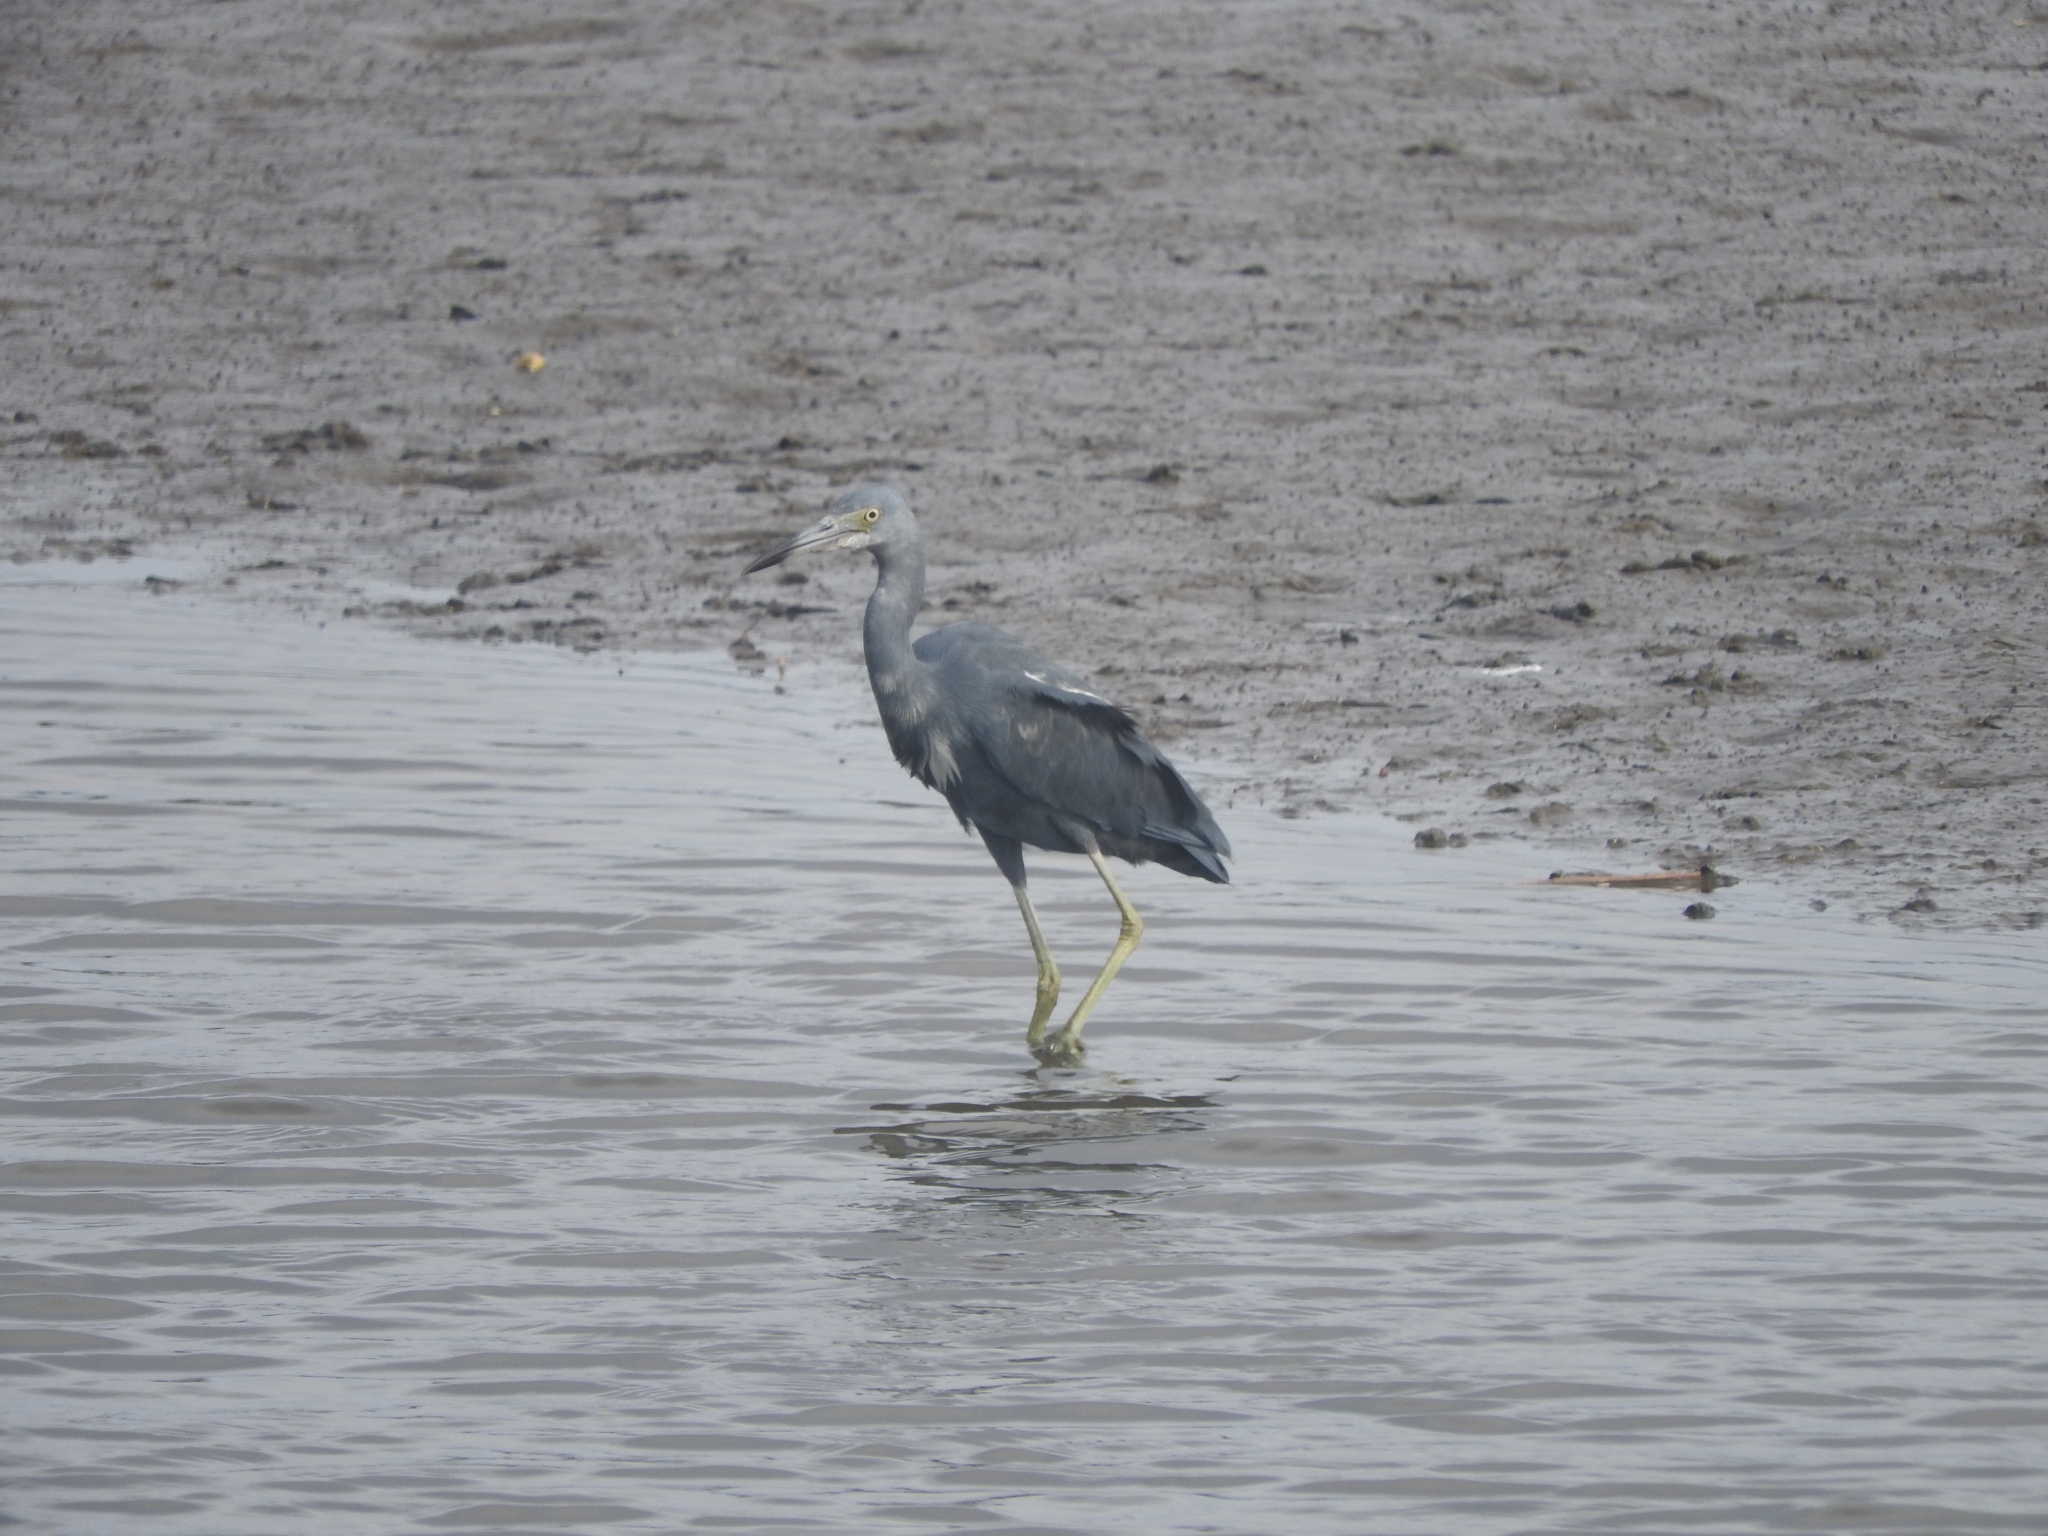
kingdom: Animalia
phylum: Chordata
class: Aves
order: Pelecaniformes
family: Ardeidae
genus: Egretta
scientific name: Egretta caerulea
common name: Little blue heron
